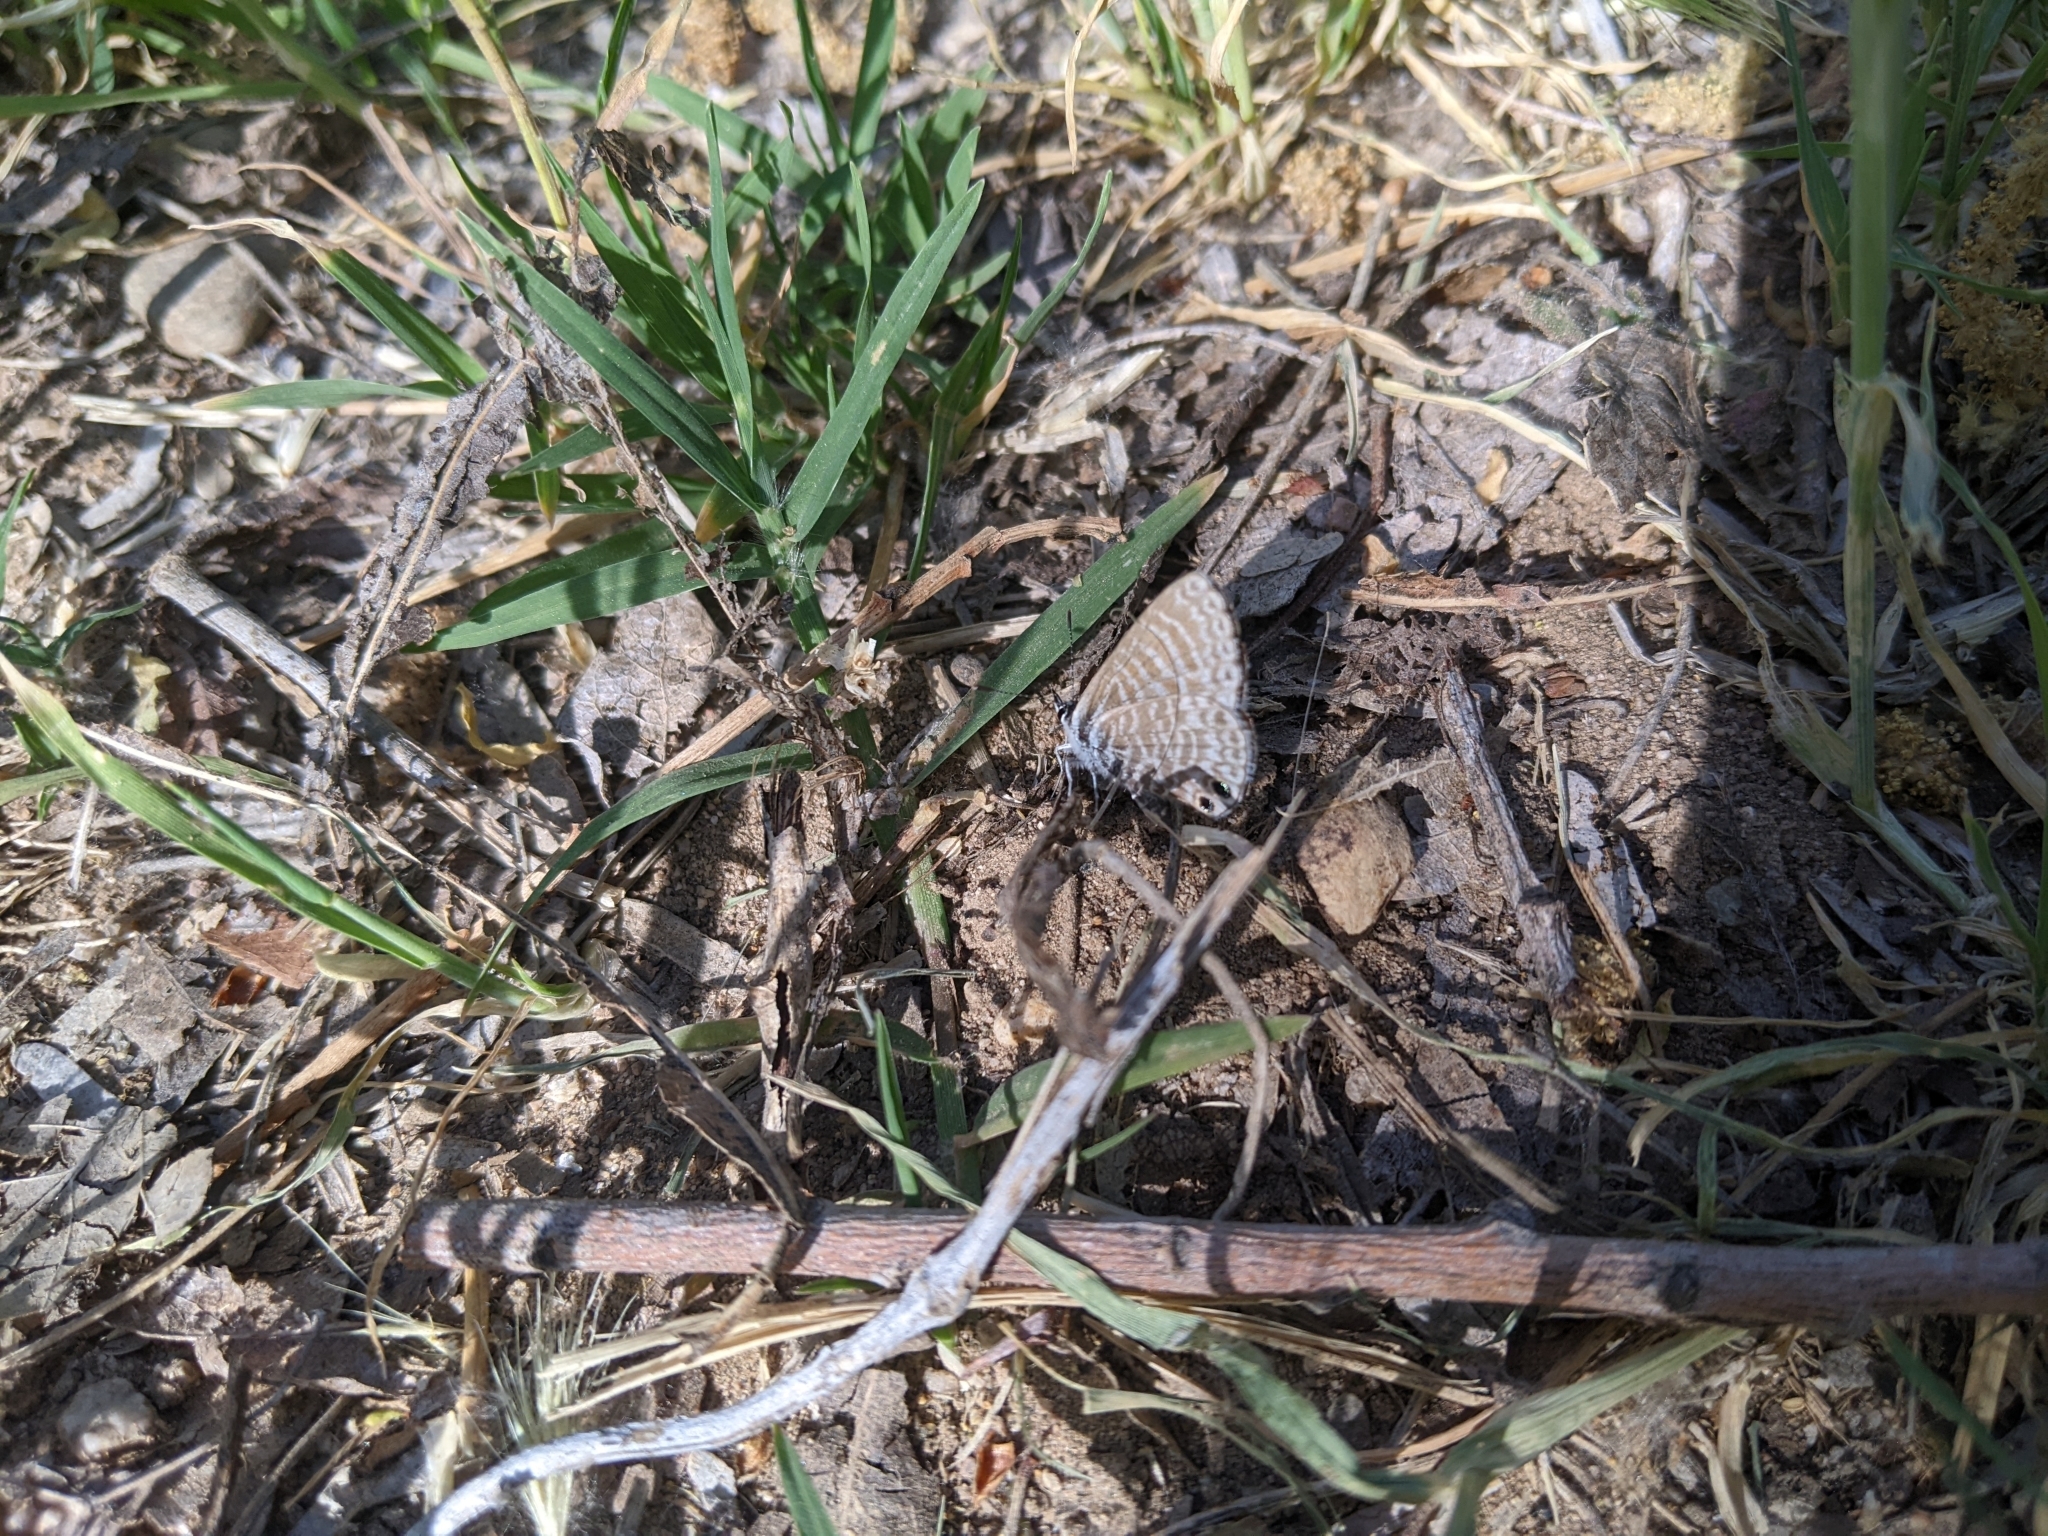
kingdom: Animalia
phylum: Arthropoda
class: Insecta
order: Lepidoptera
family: Lycaenidae
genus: Leptotes
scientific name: Leptotes marina
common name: Marine blue
